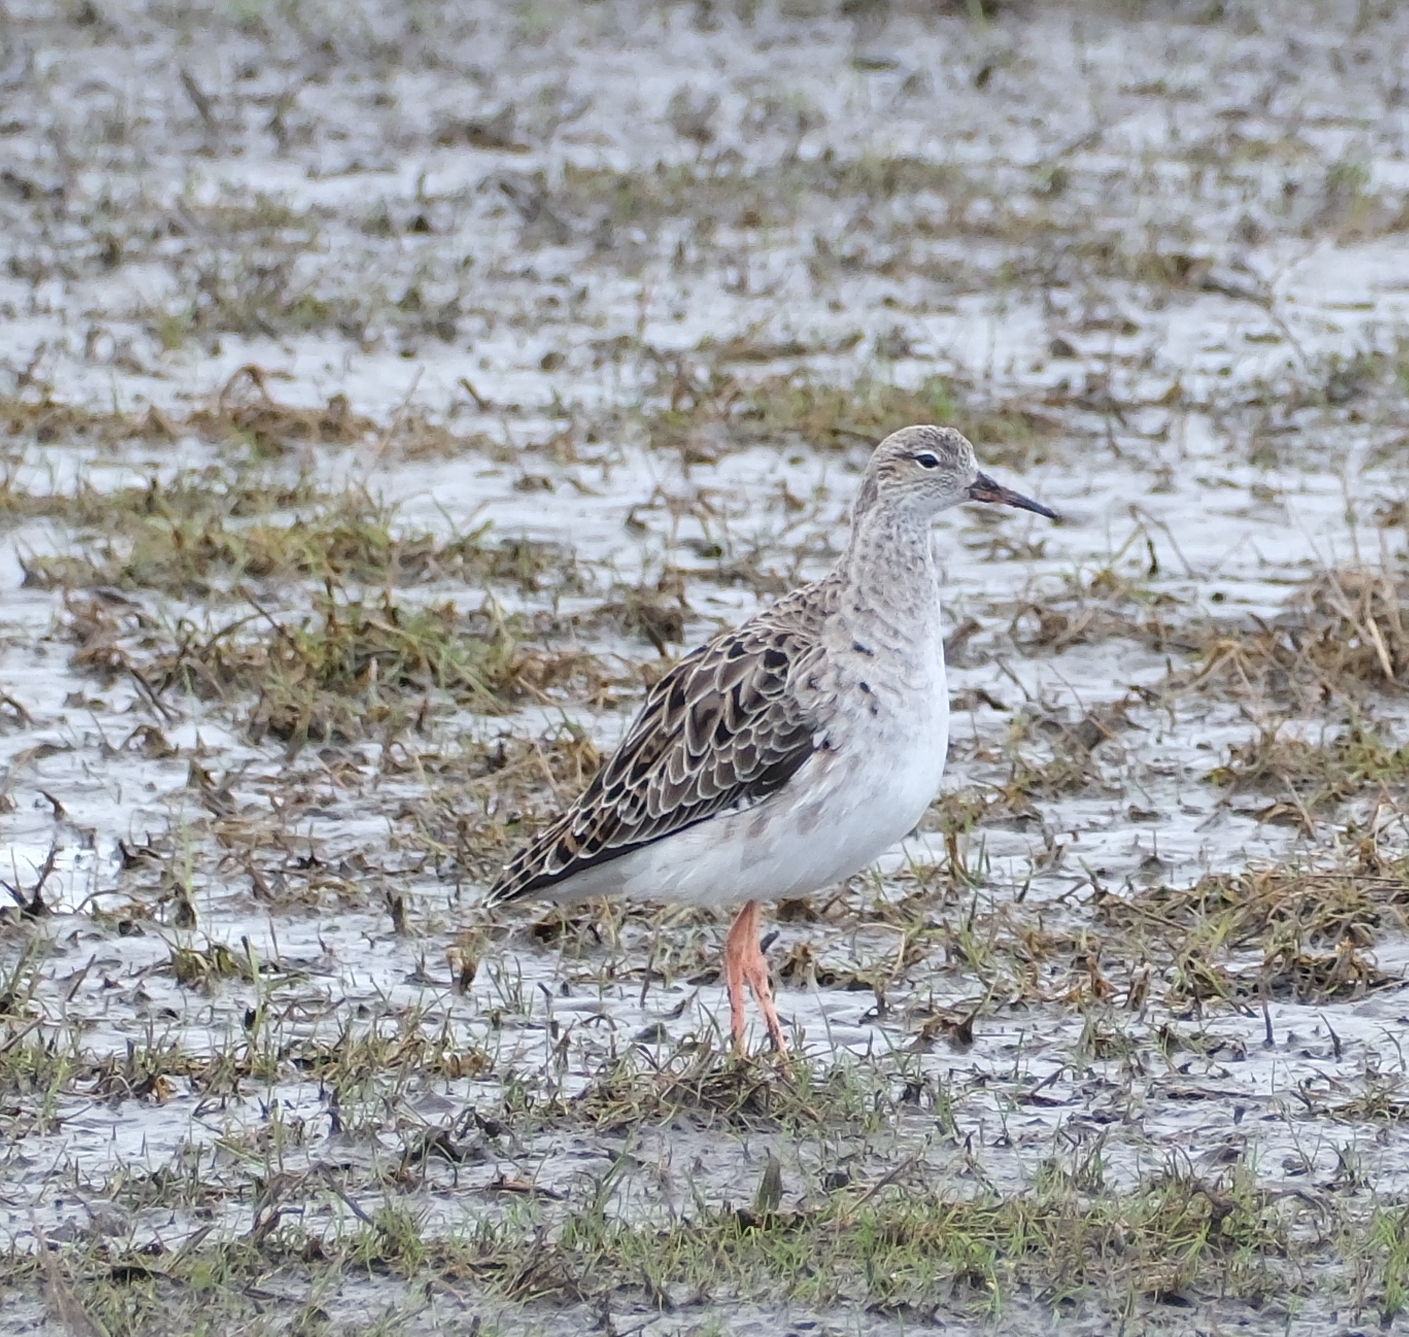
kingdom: Animalia
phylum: Chordata
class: Aves
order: Charadriiformes
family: Scolopacidae
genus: Calidris
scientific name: Calidris pugnax
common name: Ruff
